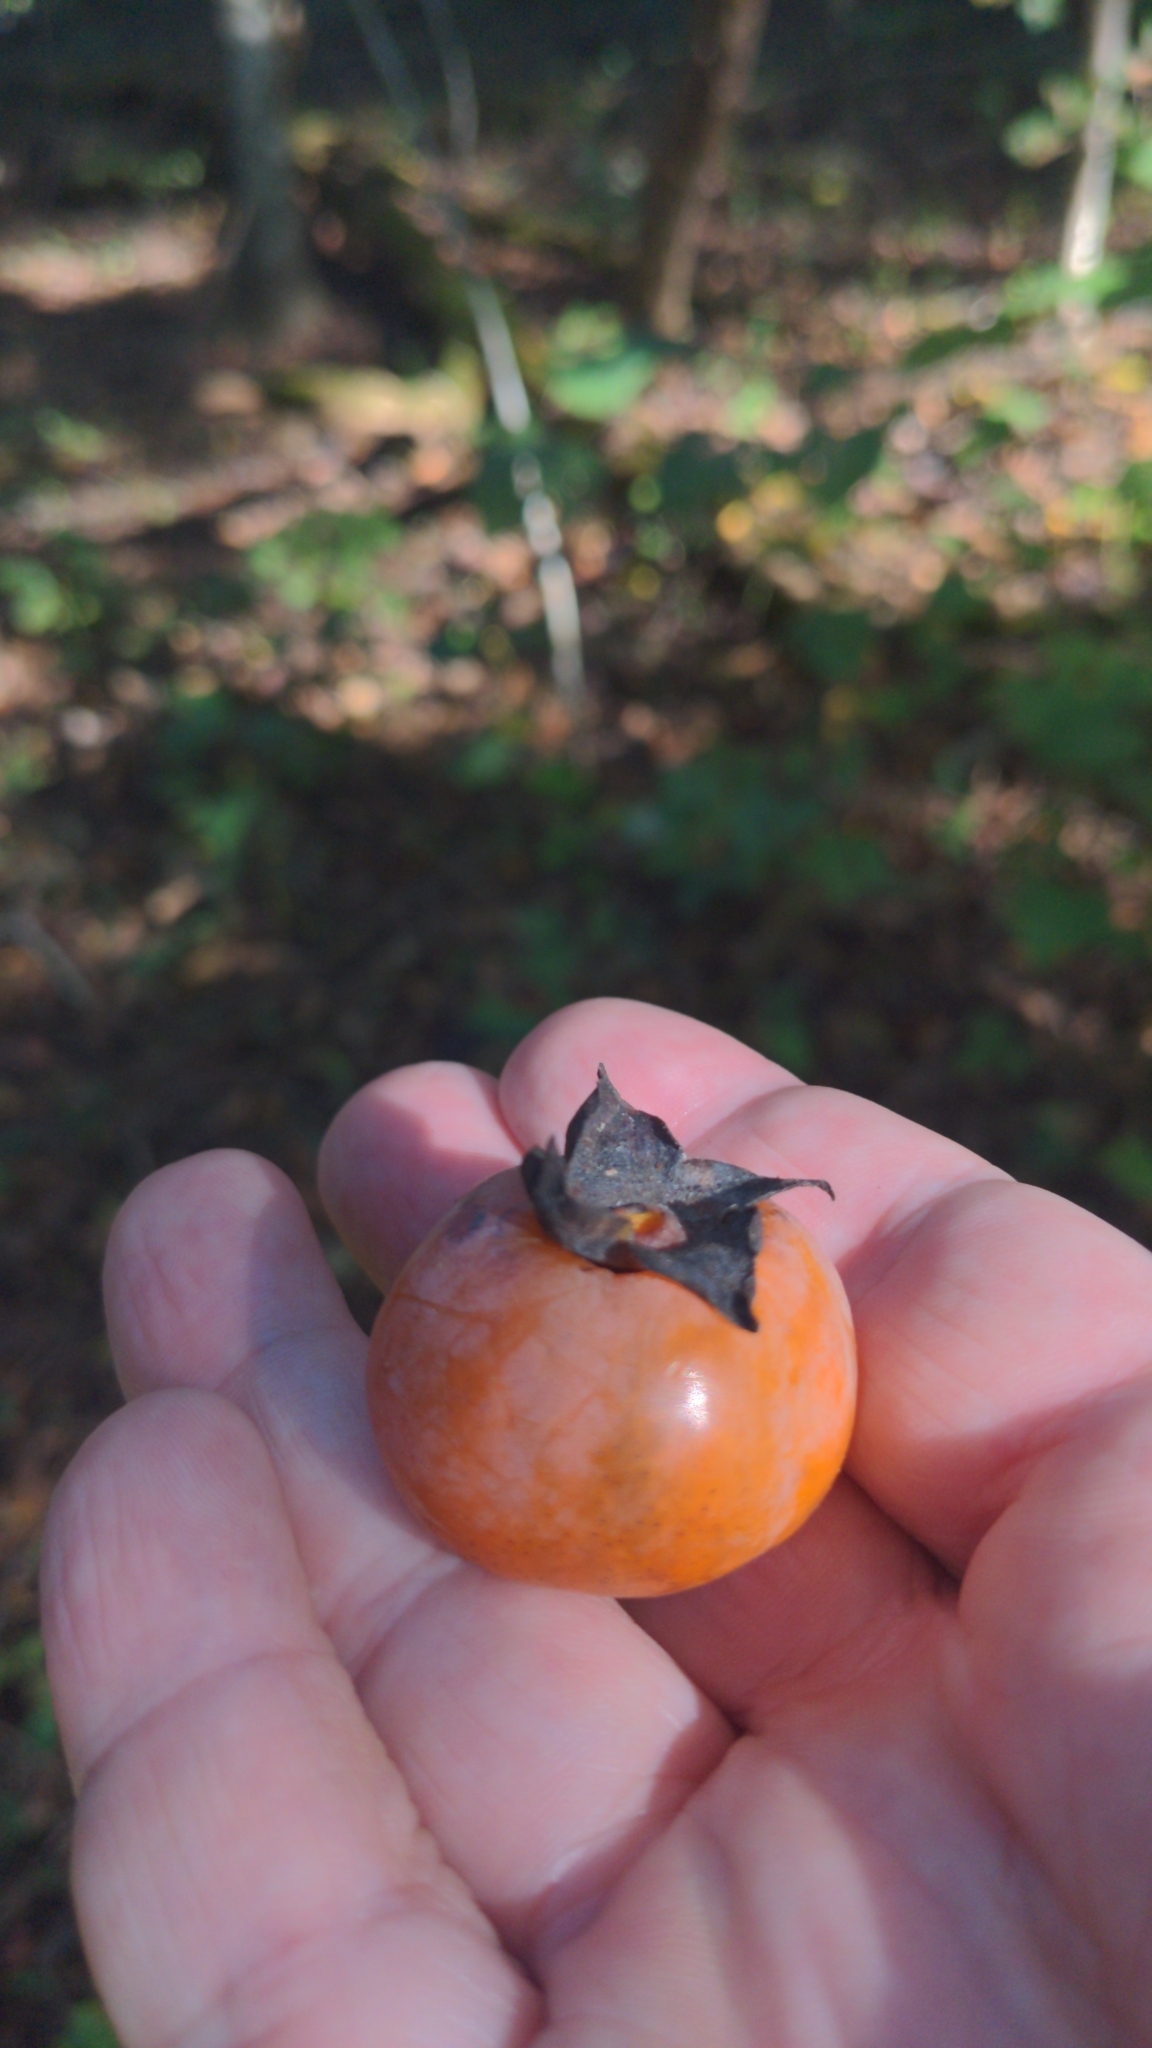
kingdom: Plantae
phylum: Tracheophyta
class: Magnoliopsida
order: Ericales
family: Ebenaceae
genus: Diospyros
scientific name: Diospyros virginiana
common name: Persimmon
